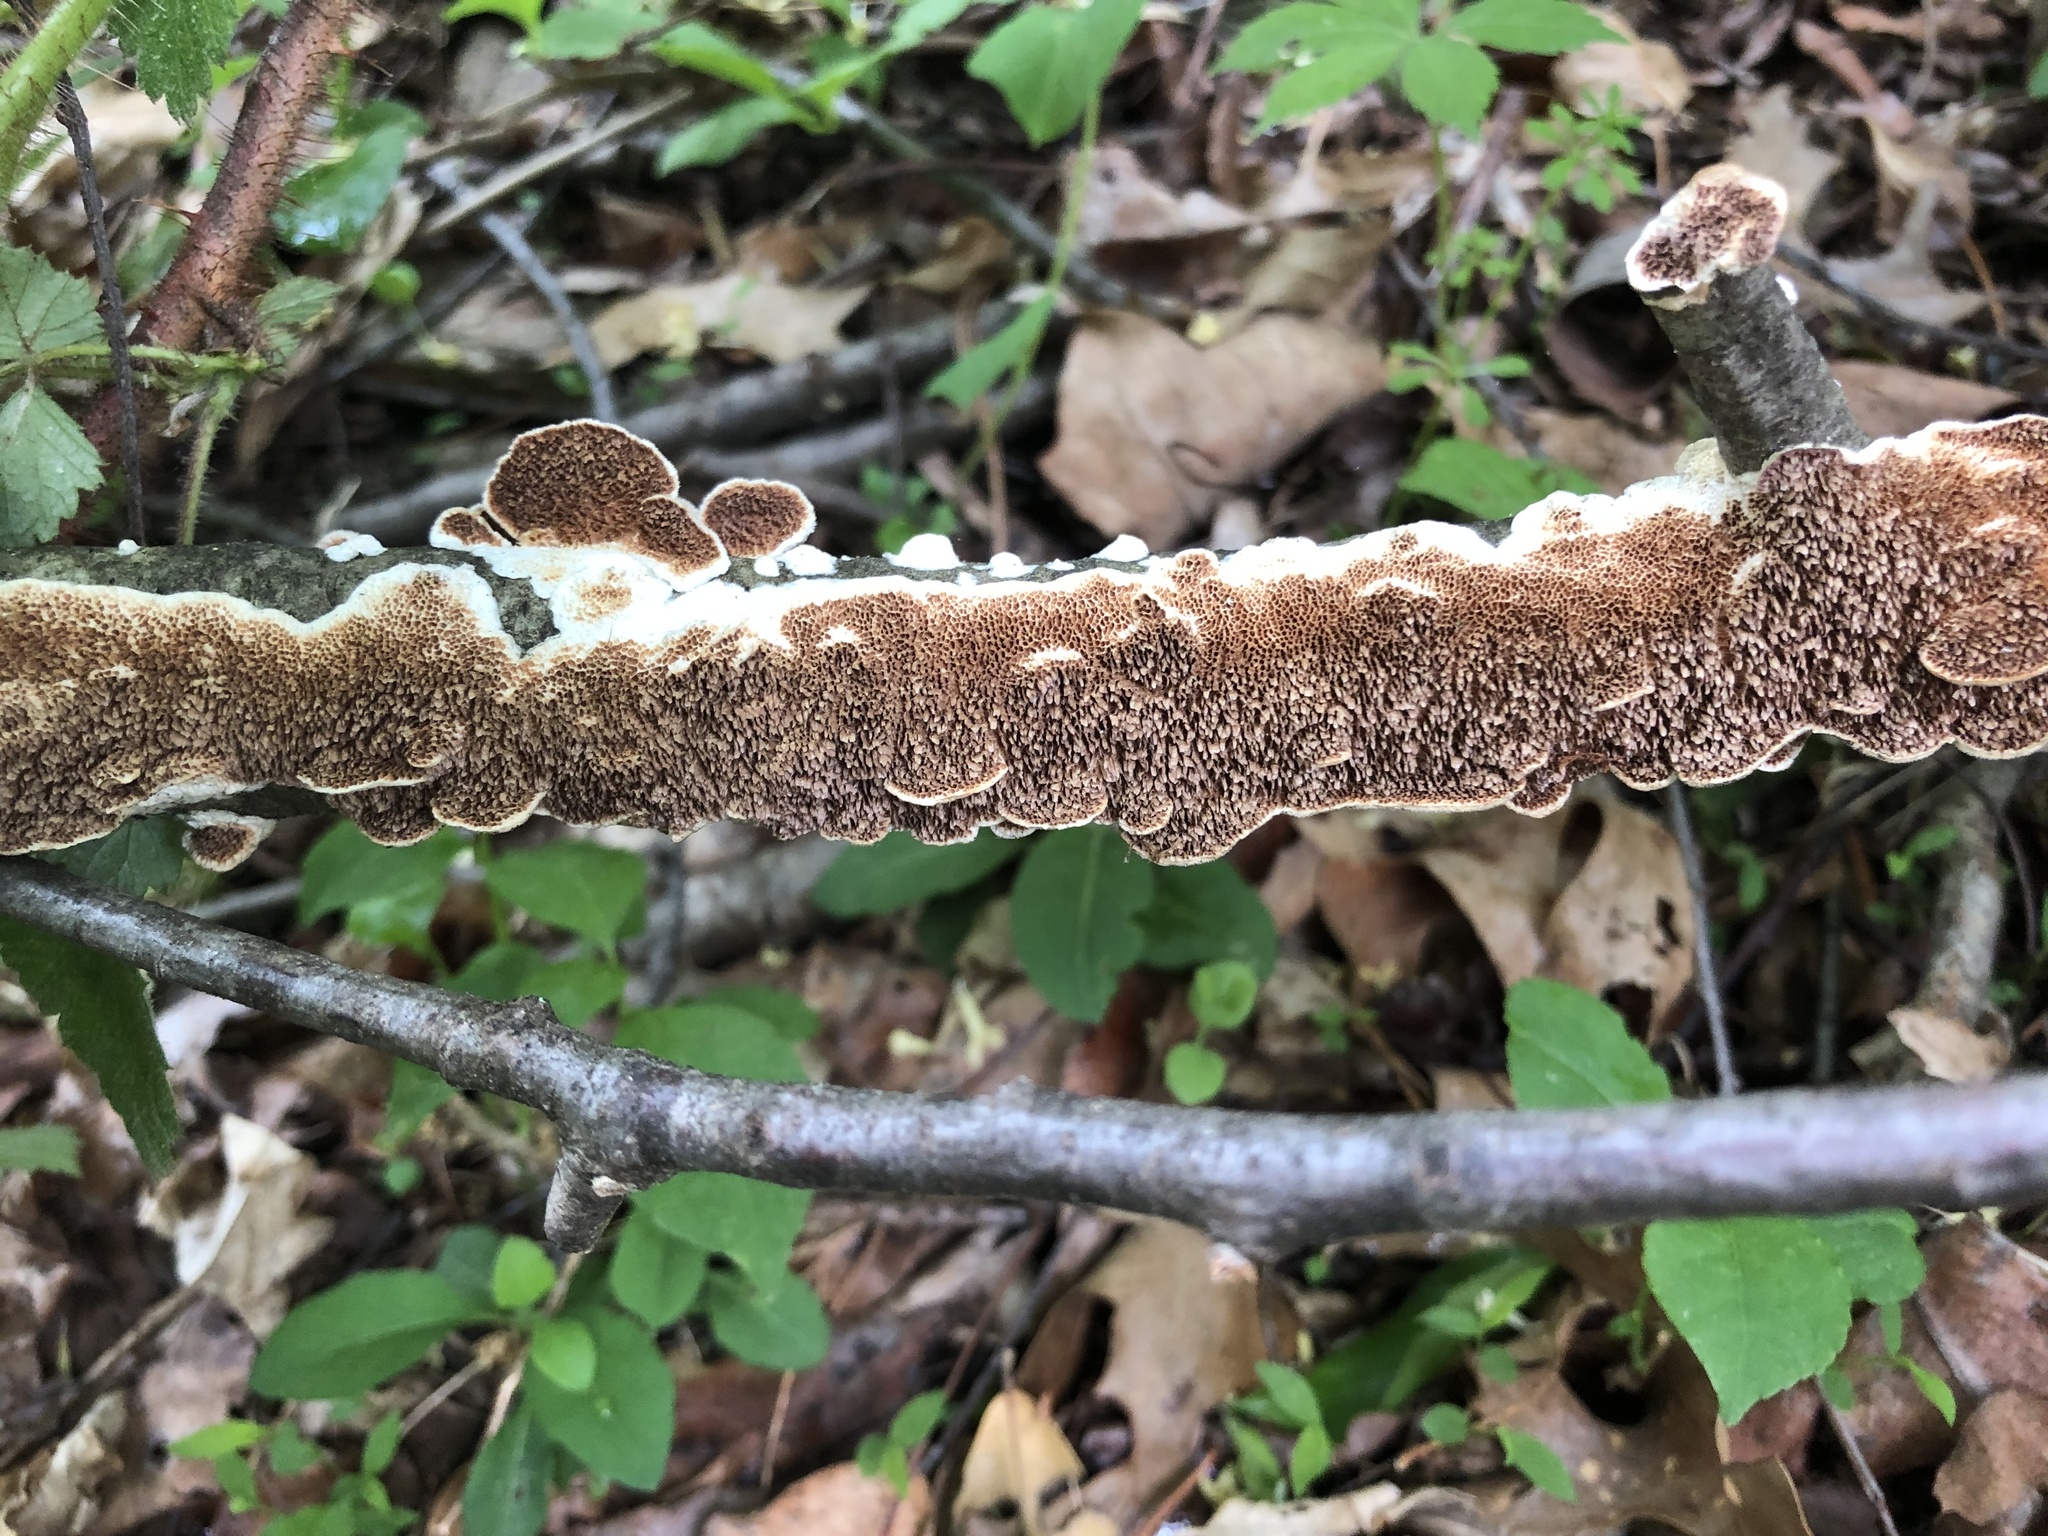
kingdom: Fungi
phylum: Basidiomycota
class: Agaricomycetes
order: Russulales
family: Peniophoraceae
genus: Peniophora
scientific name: Peniophora albobadia
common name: Giraffe spots
